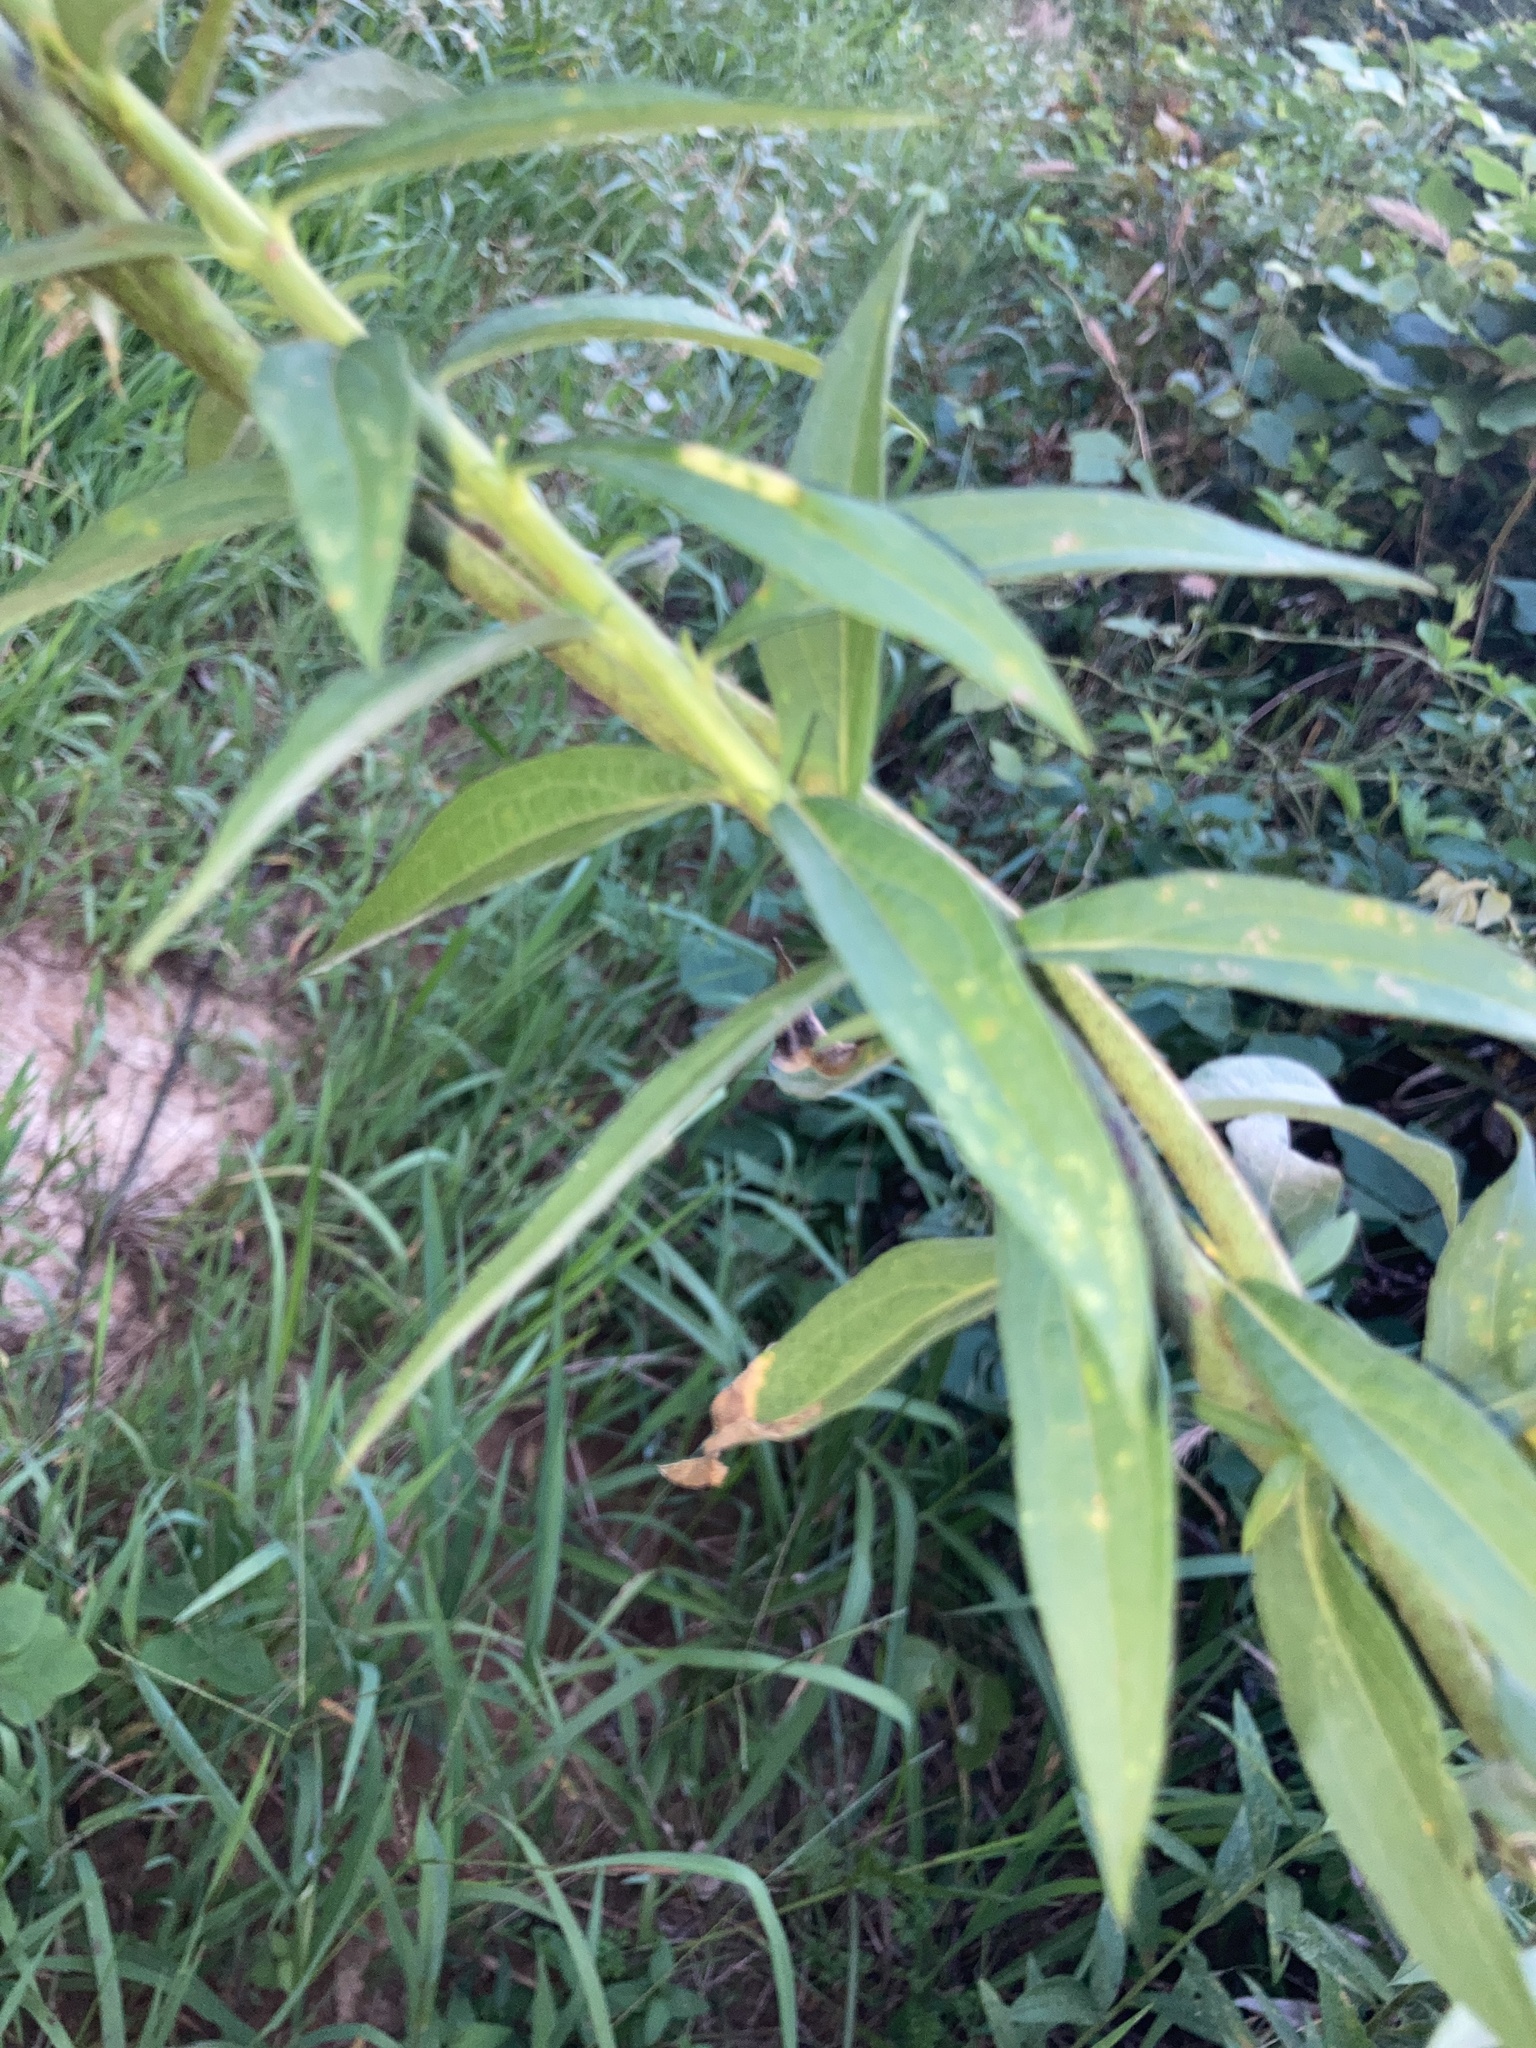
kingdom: Plantae
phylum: Tracheophyta
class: Magnoliopsida
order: Asterales
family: Asteraceae
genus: Verbesina
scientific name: Verbesina alternifolia
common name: Wingstem
